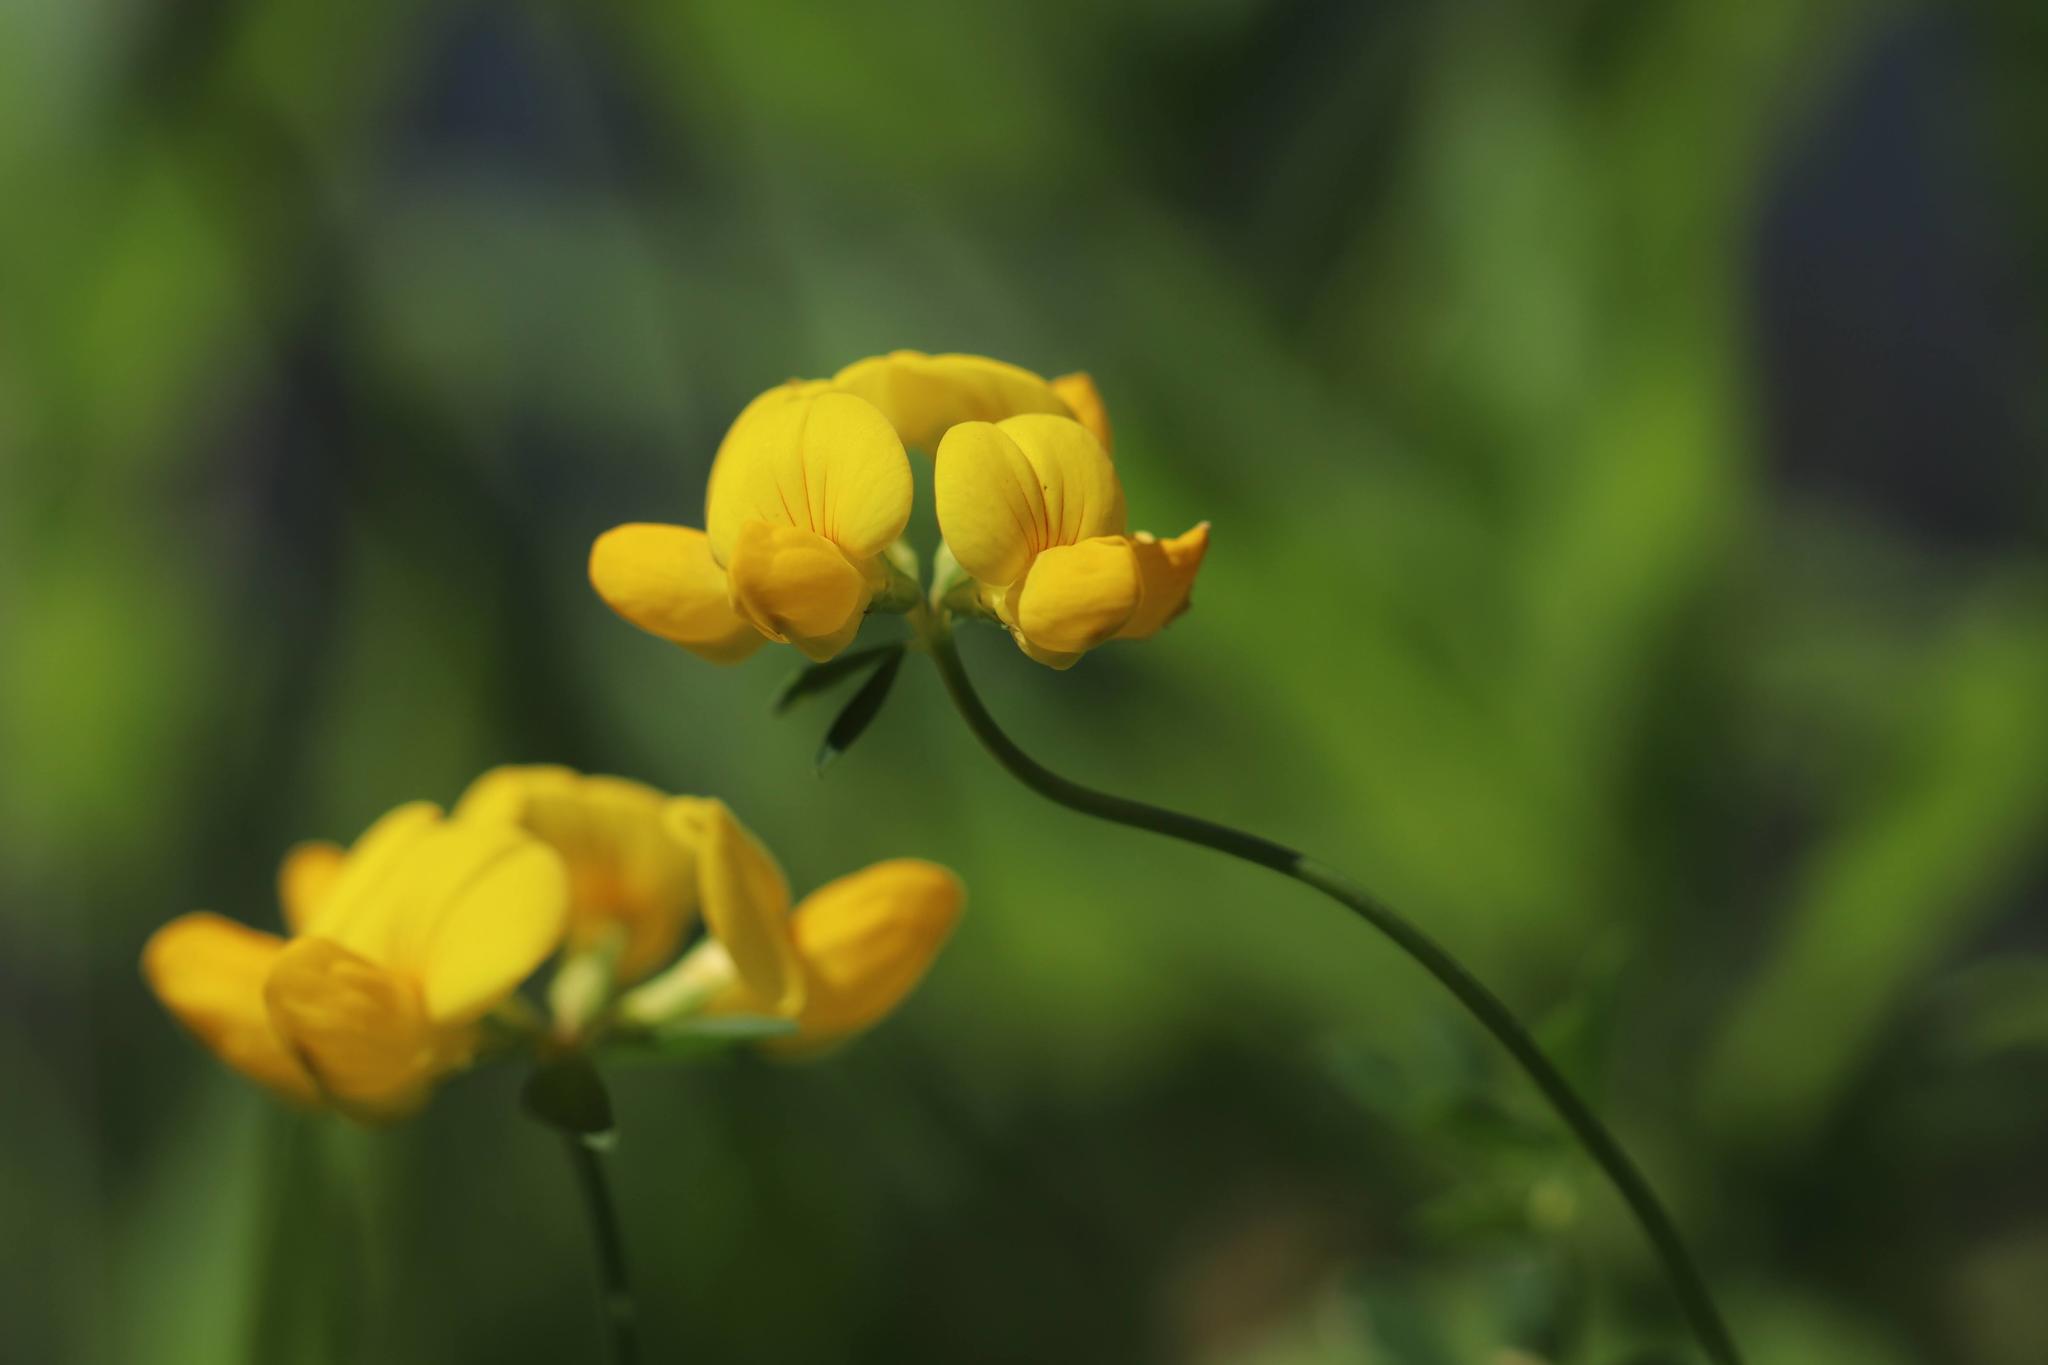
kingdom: Plantae
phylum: Tracheophyta
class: Magnoliopsida
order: Fabales
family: Fabaceae
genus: Lotus
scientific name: Lotus
